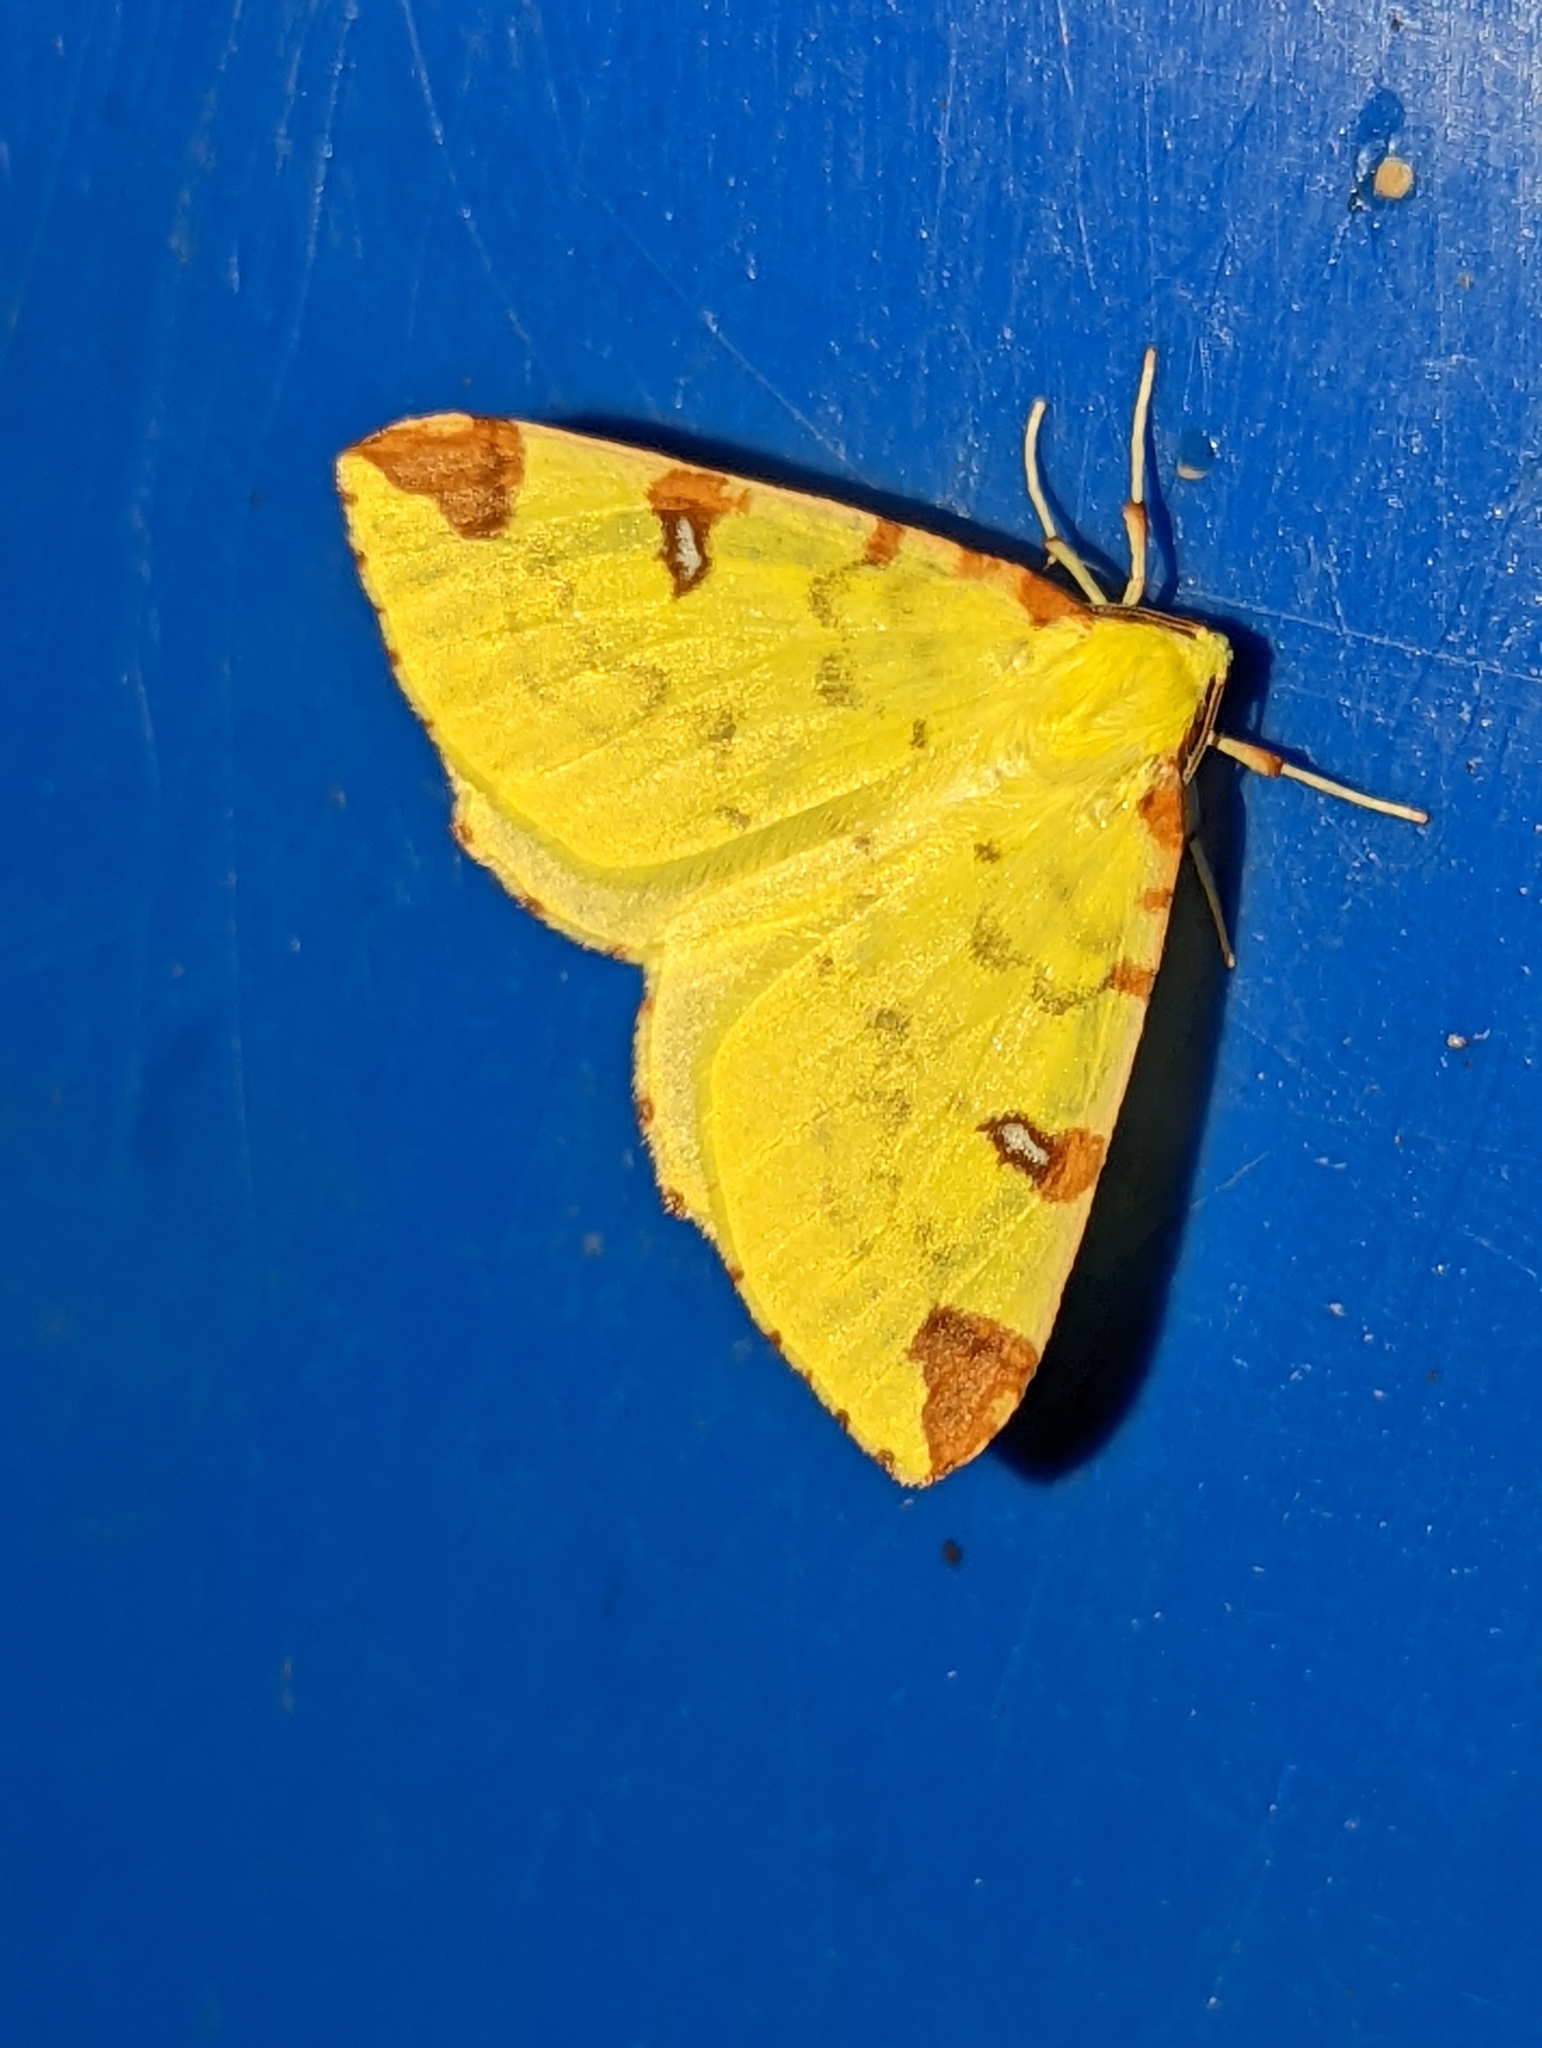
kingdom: Animalia
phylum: Arthropoda
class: Insecta
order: Lepidoptera
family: Geometridae
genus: Opisthograptis
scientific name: Opisthograptis luteolata
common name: Brimstone moth
